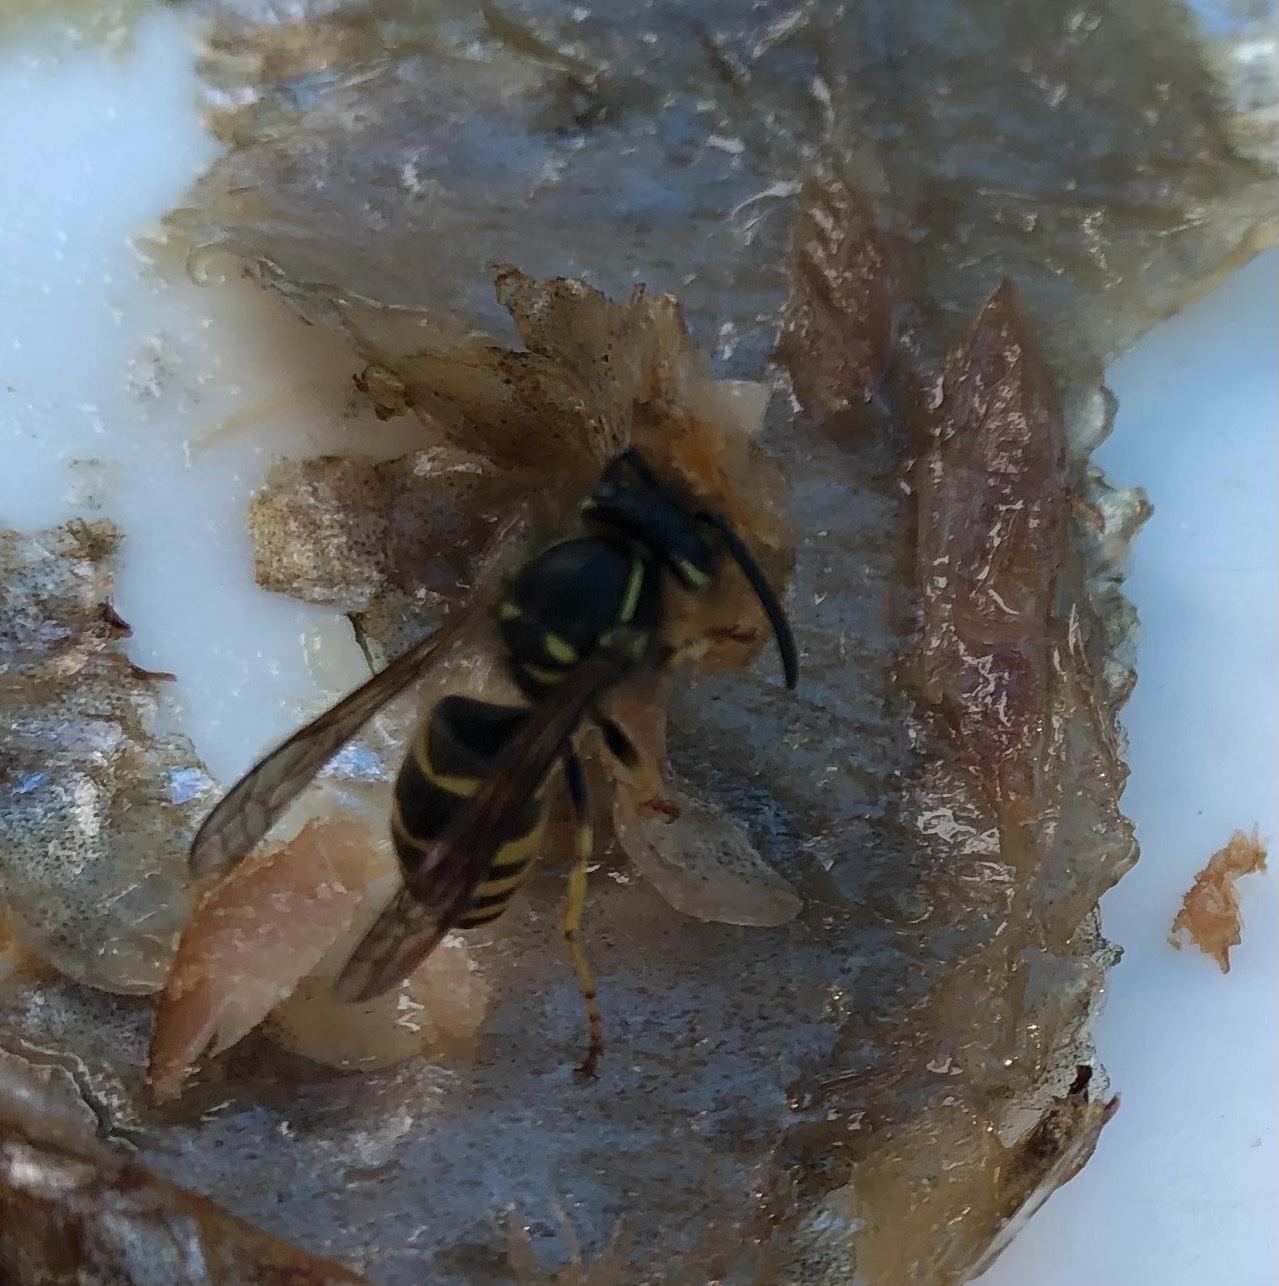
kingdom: Animalia
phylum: Arthropoda
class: Insecta
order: Hymenoptera
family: Vespidae
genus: Vespula
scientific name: Vespula alascensis
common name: Alaska yellowjacket
